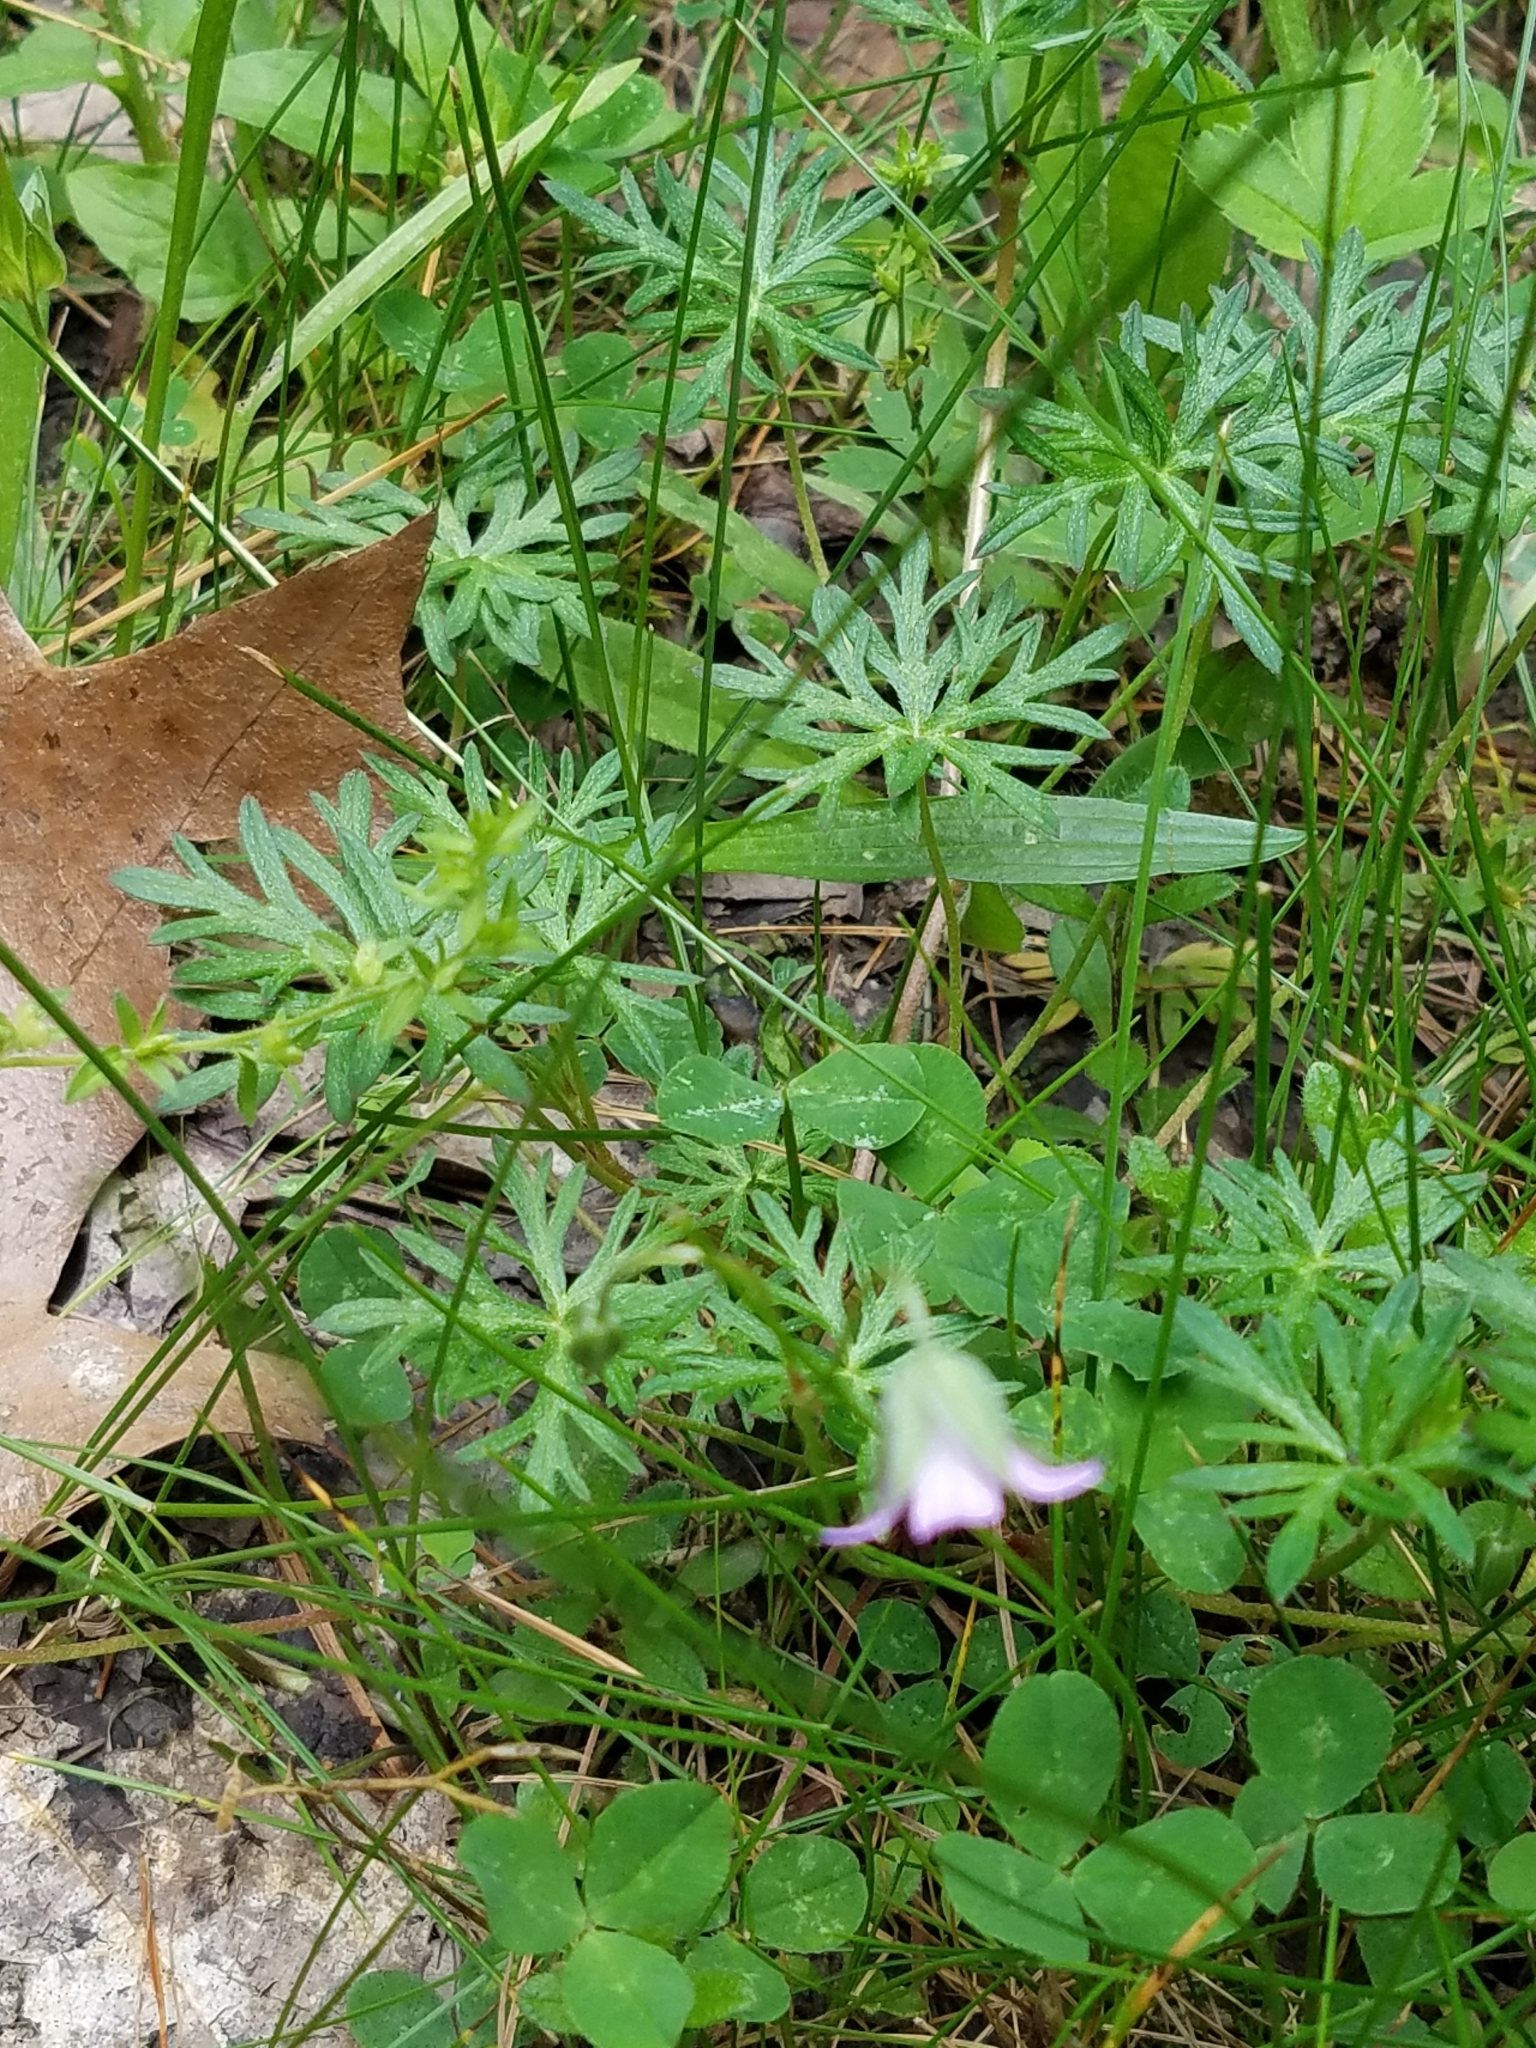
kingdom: Plantae
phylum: Tracheophyta
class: Magnoliopsida
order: Geraniales
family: Geraniaceae
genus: Geranium
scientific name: Geranium columbinum
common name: Long-stalked crane's-bill
